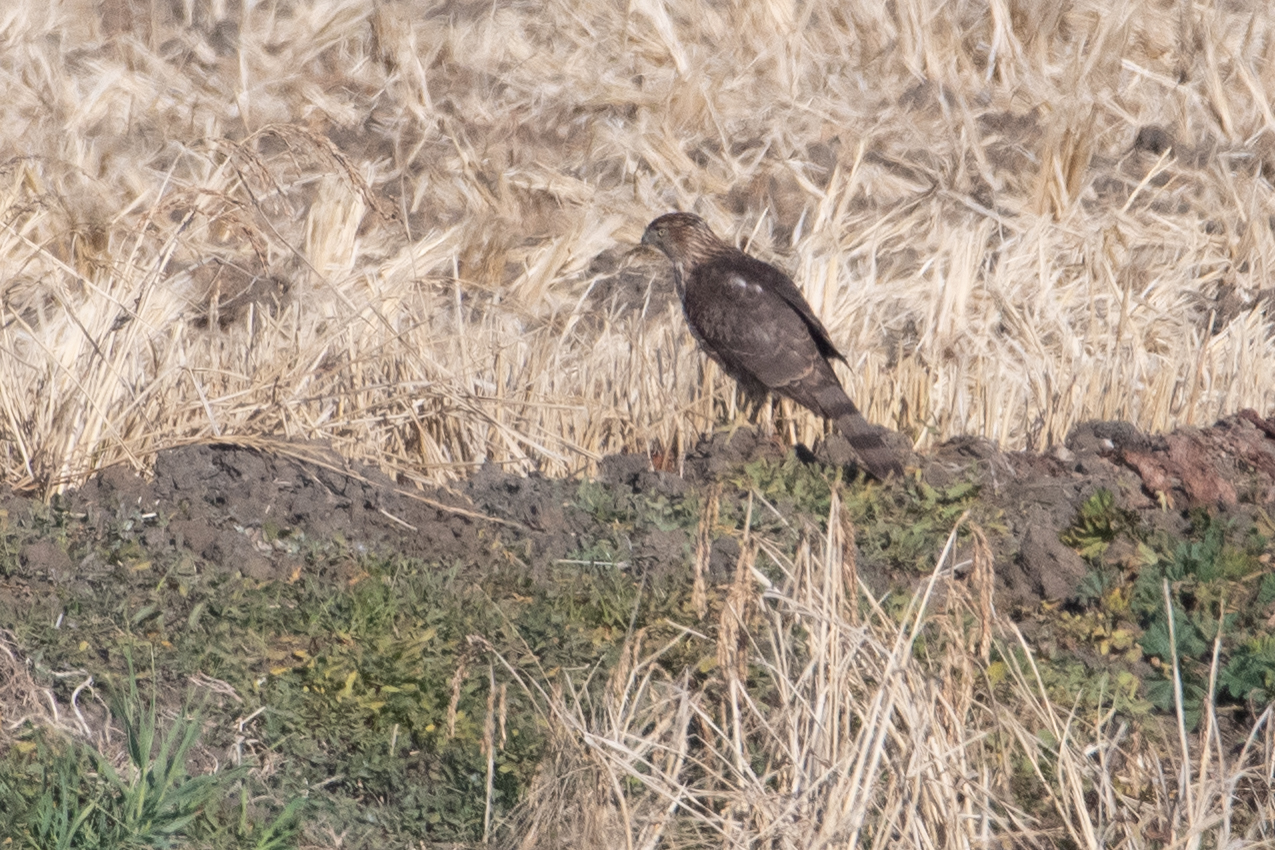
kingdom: Animalia
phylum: Chordata
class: Aves
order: Accipitriformes
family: Accipitridae
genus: Accipiter
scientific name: Accipiter cooperii
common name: Cooper's hawk
